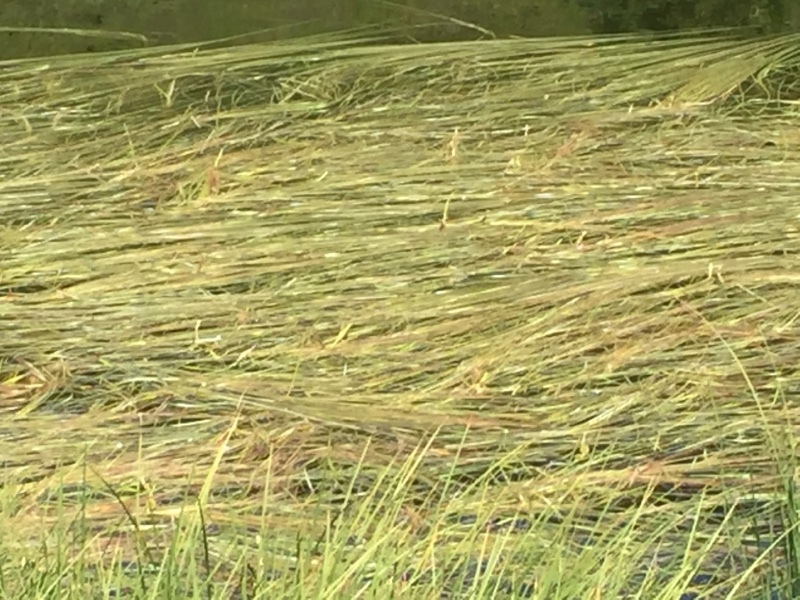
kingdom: Plantae
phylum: Tracheophyta
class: Liliopsida
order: Poales
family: Typhaceae
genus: Sparganium
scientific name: Sparganium angustifolium
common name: Floating bur-reed
